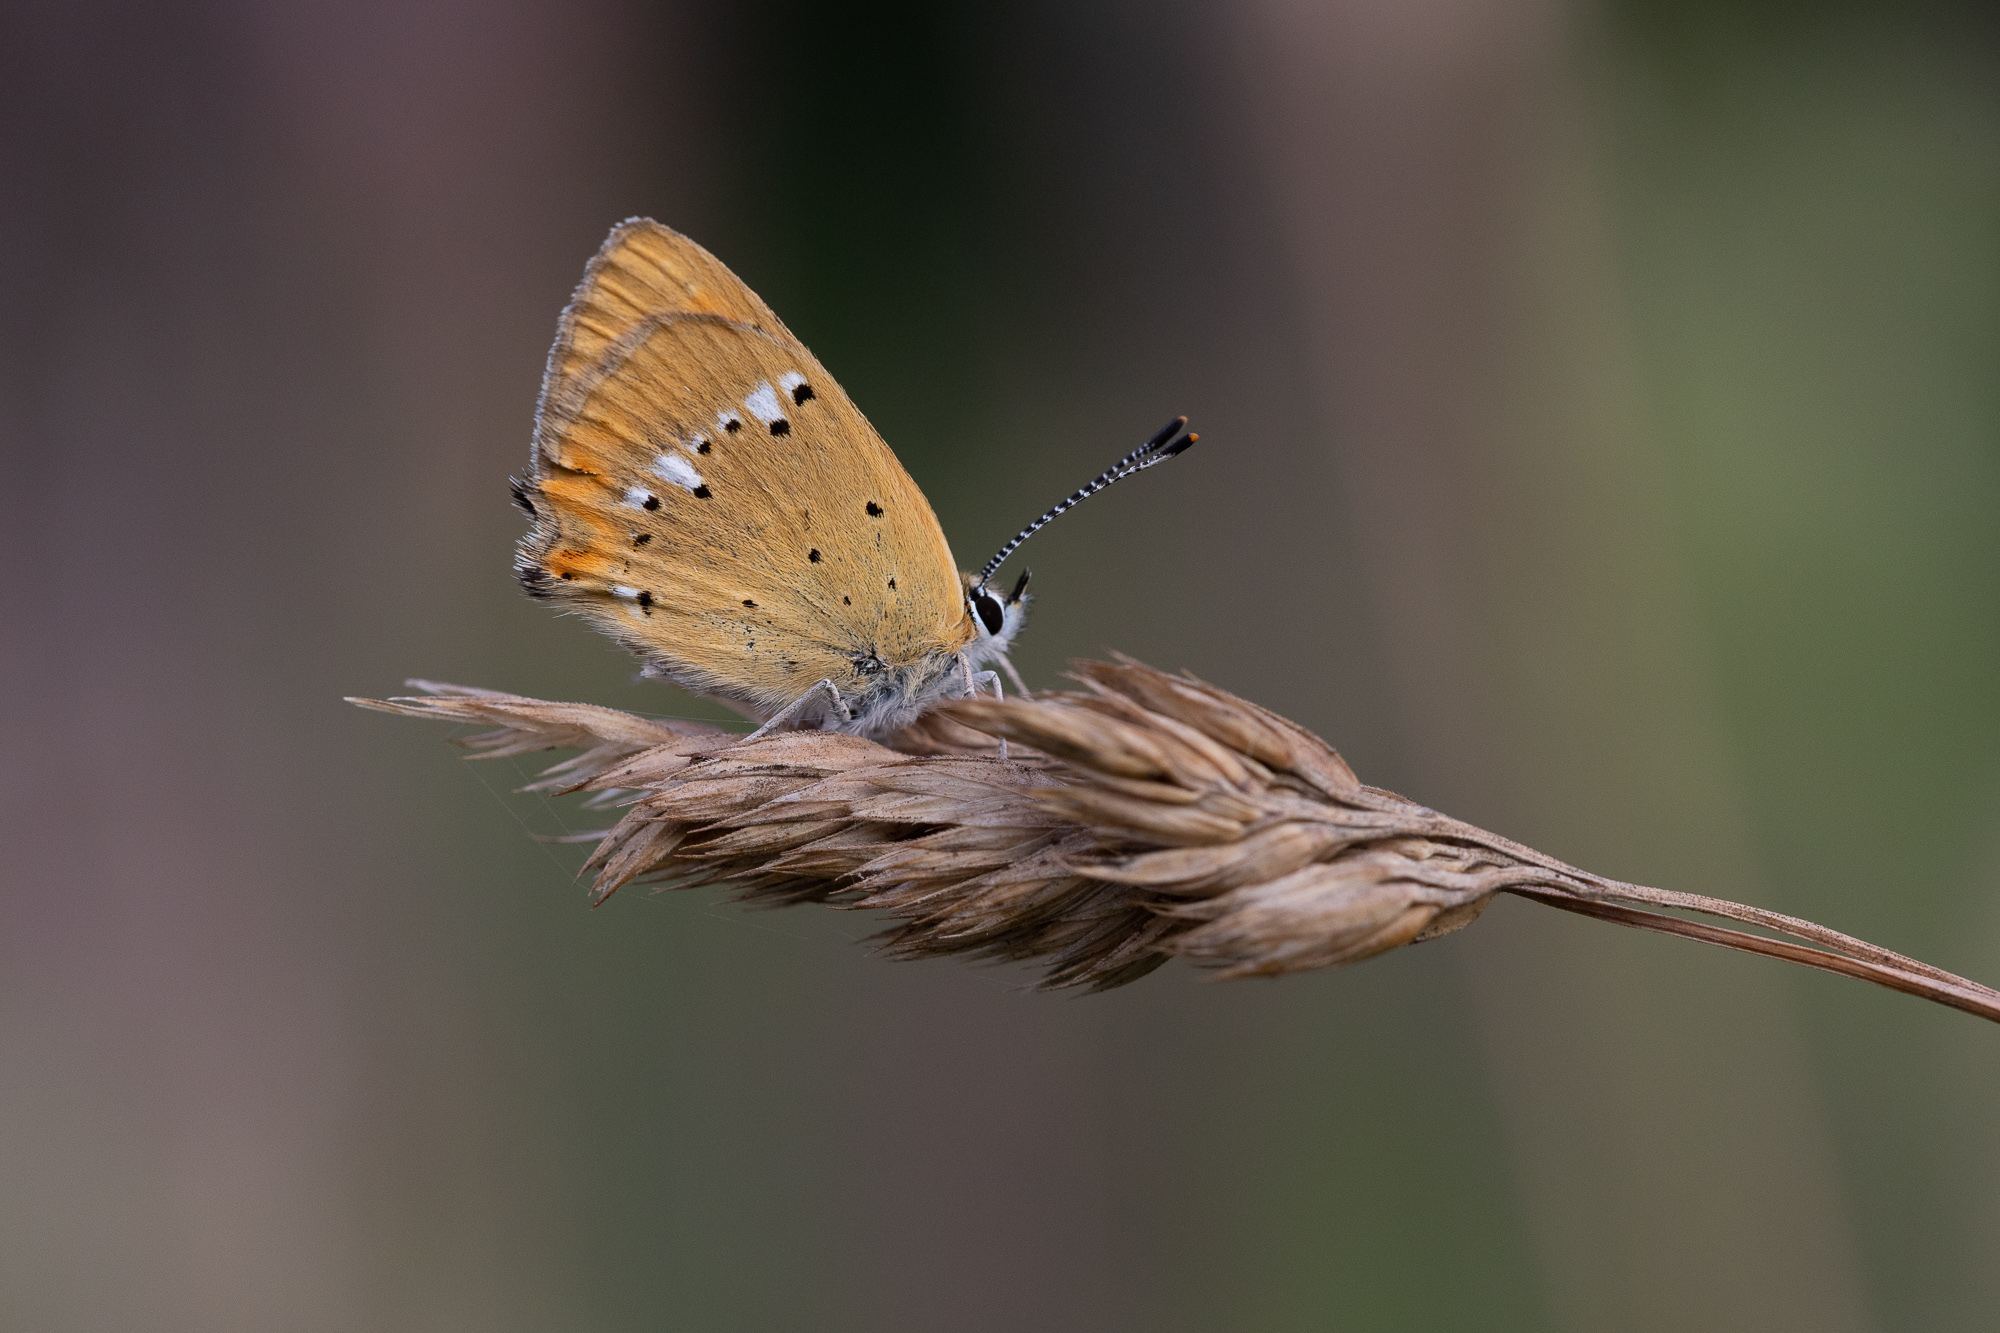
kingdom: Animalia
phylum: Arthropoda
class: Insecta
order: Lepidoptera
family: Lycaenidae
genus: Lycaena
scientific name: Lycaena virgaureae
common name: Scarce copper
